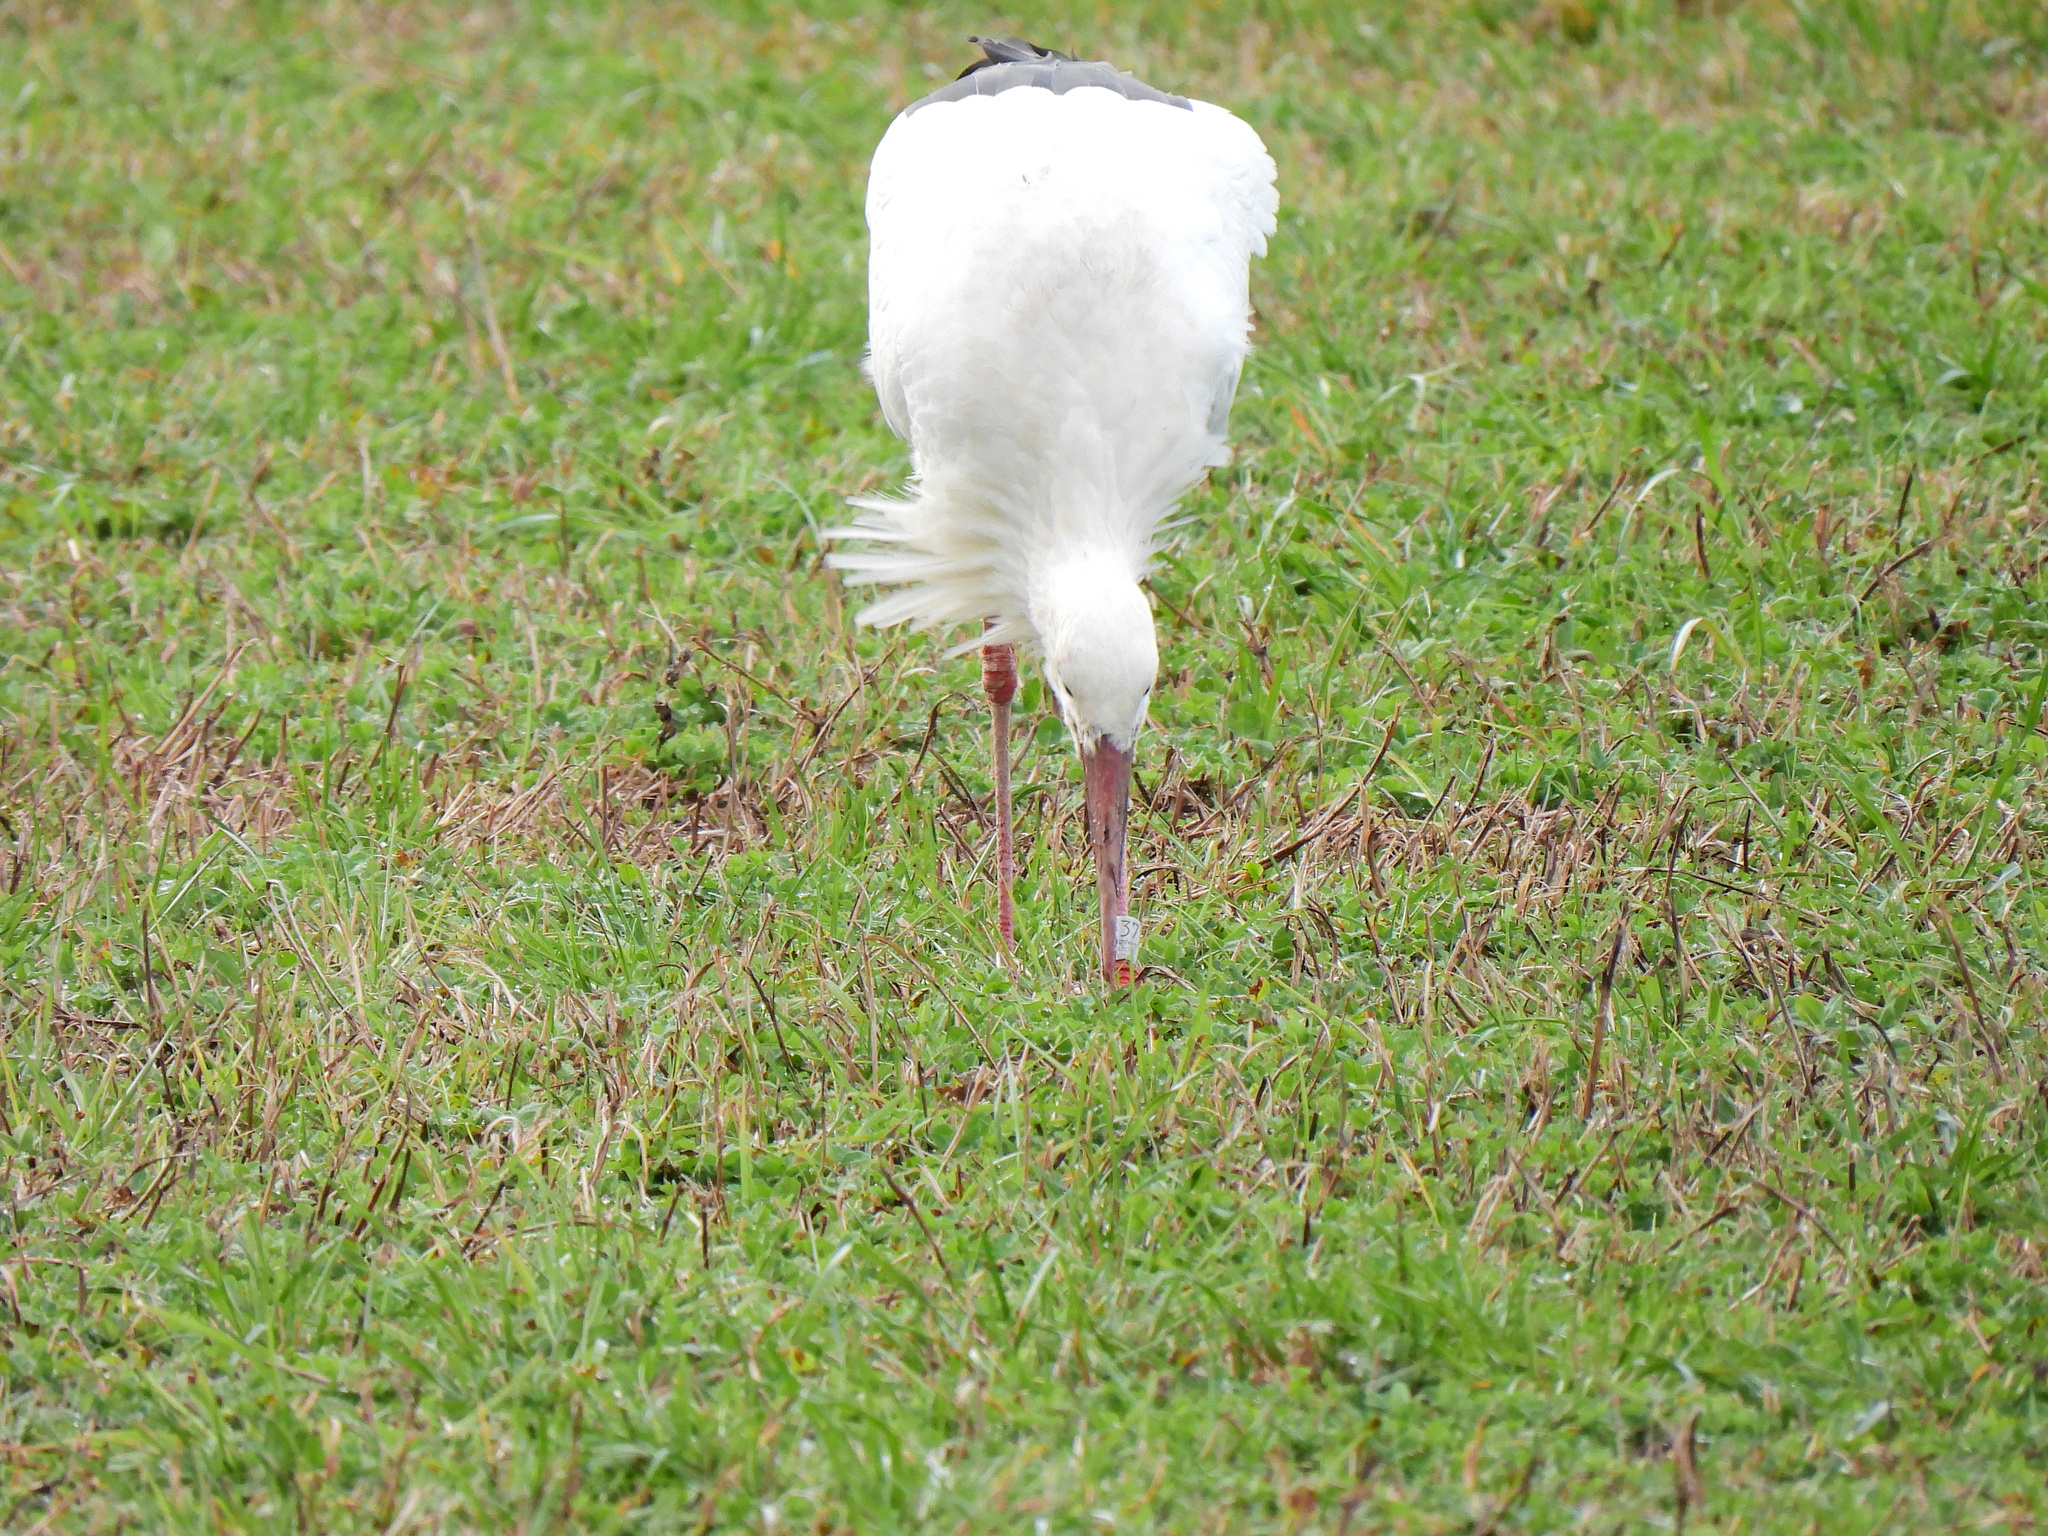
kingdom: Animalia
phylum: Chordata
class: Aves
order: Ciconiiformes
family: Ciconiidae
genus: Ciconia
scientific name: Ciconia ciconia
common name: White stork
